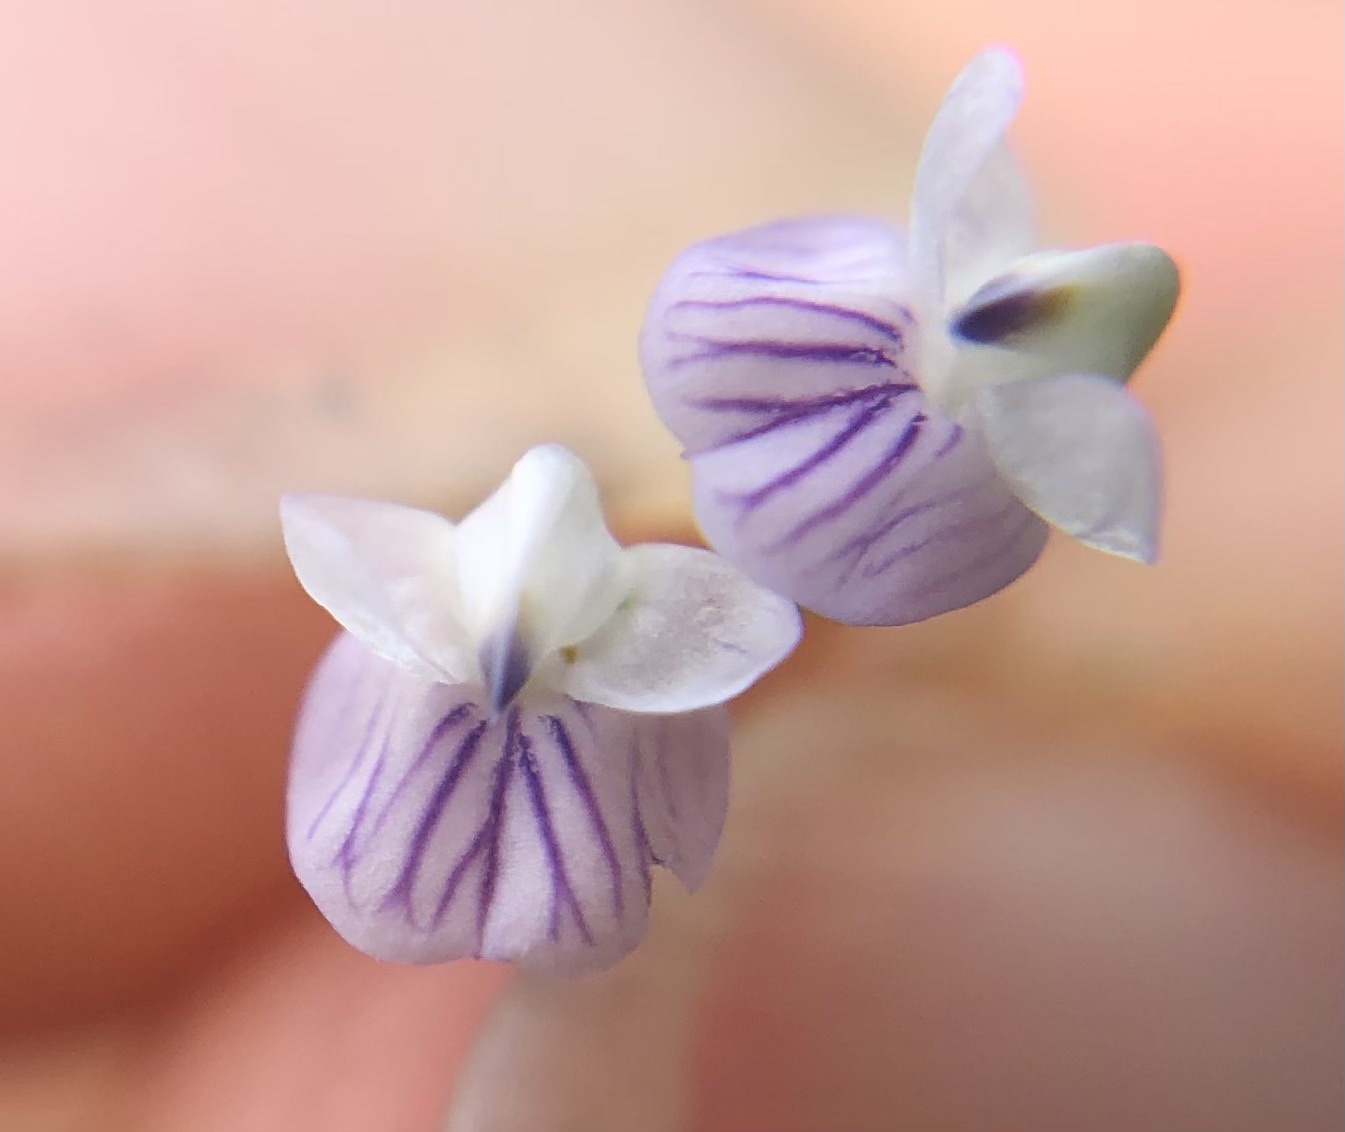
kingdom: Plantae
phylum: Tracheophyta
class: Magnoliopsida
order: Fabales
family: Fabaceae
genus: Vicia
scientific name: Vicia tetrasperma
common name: Smooth tare
